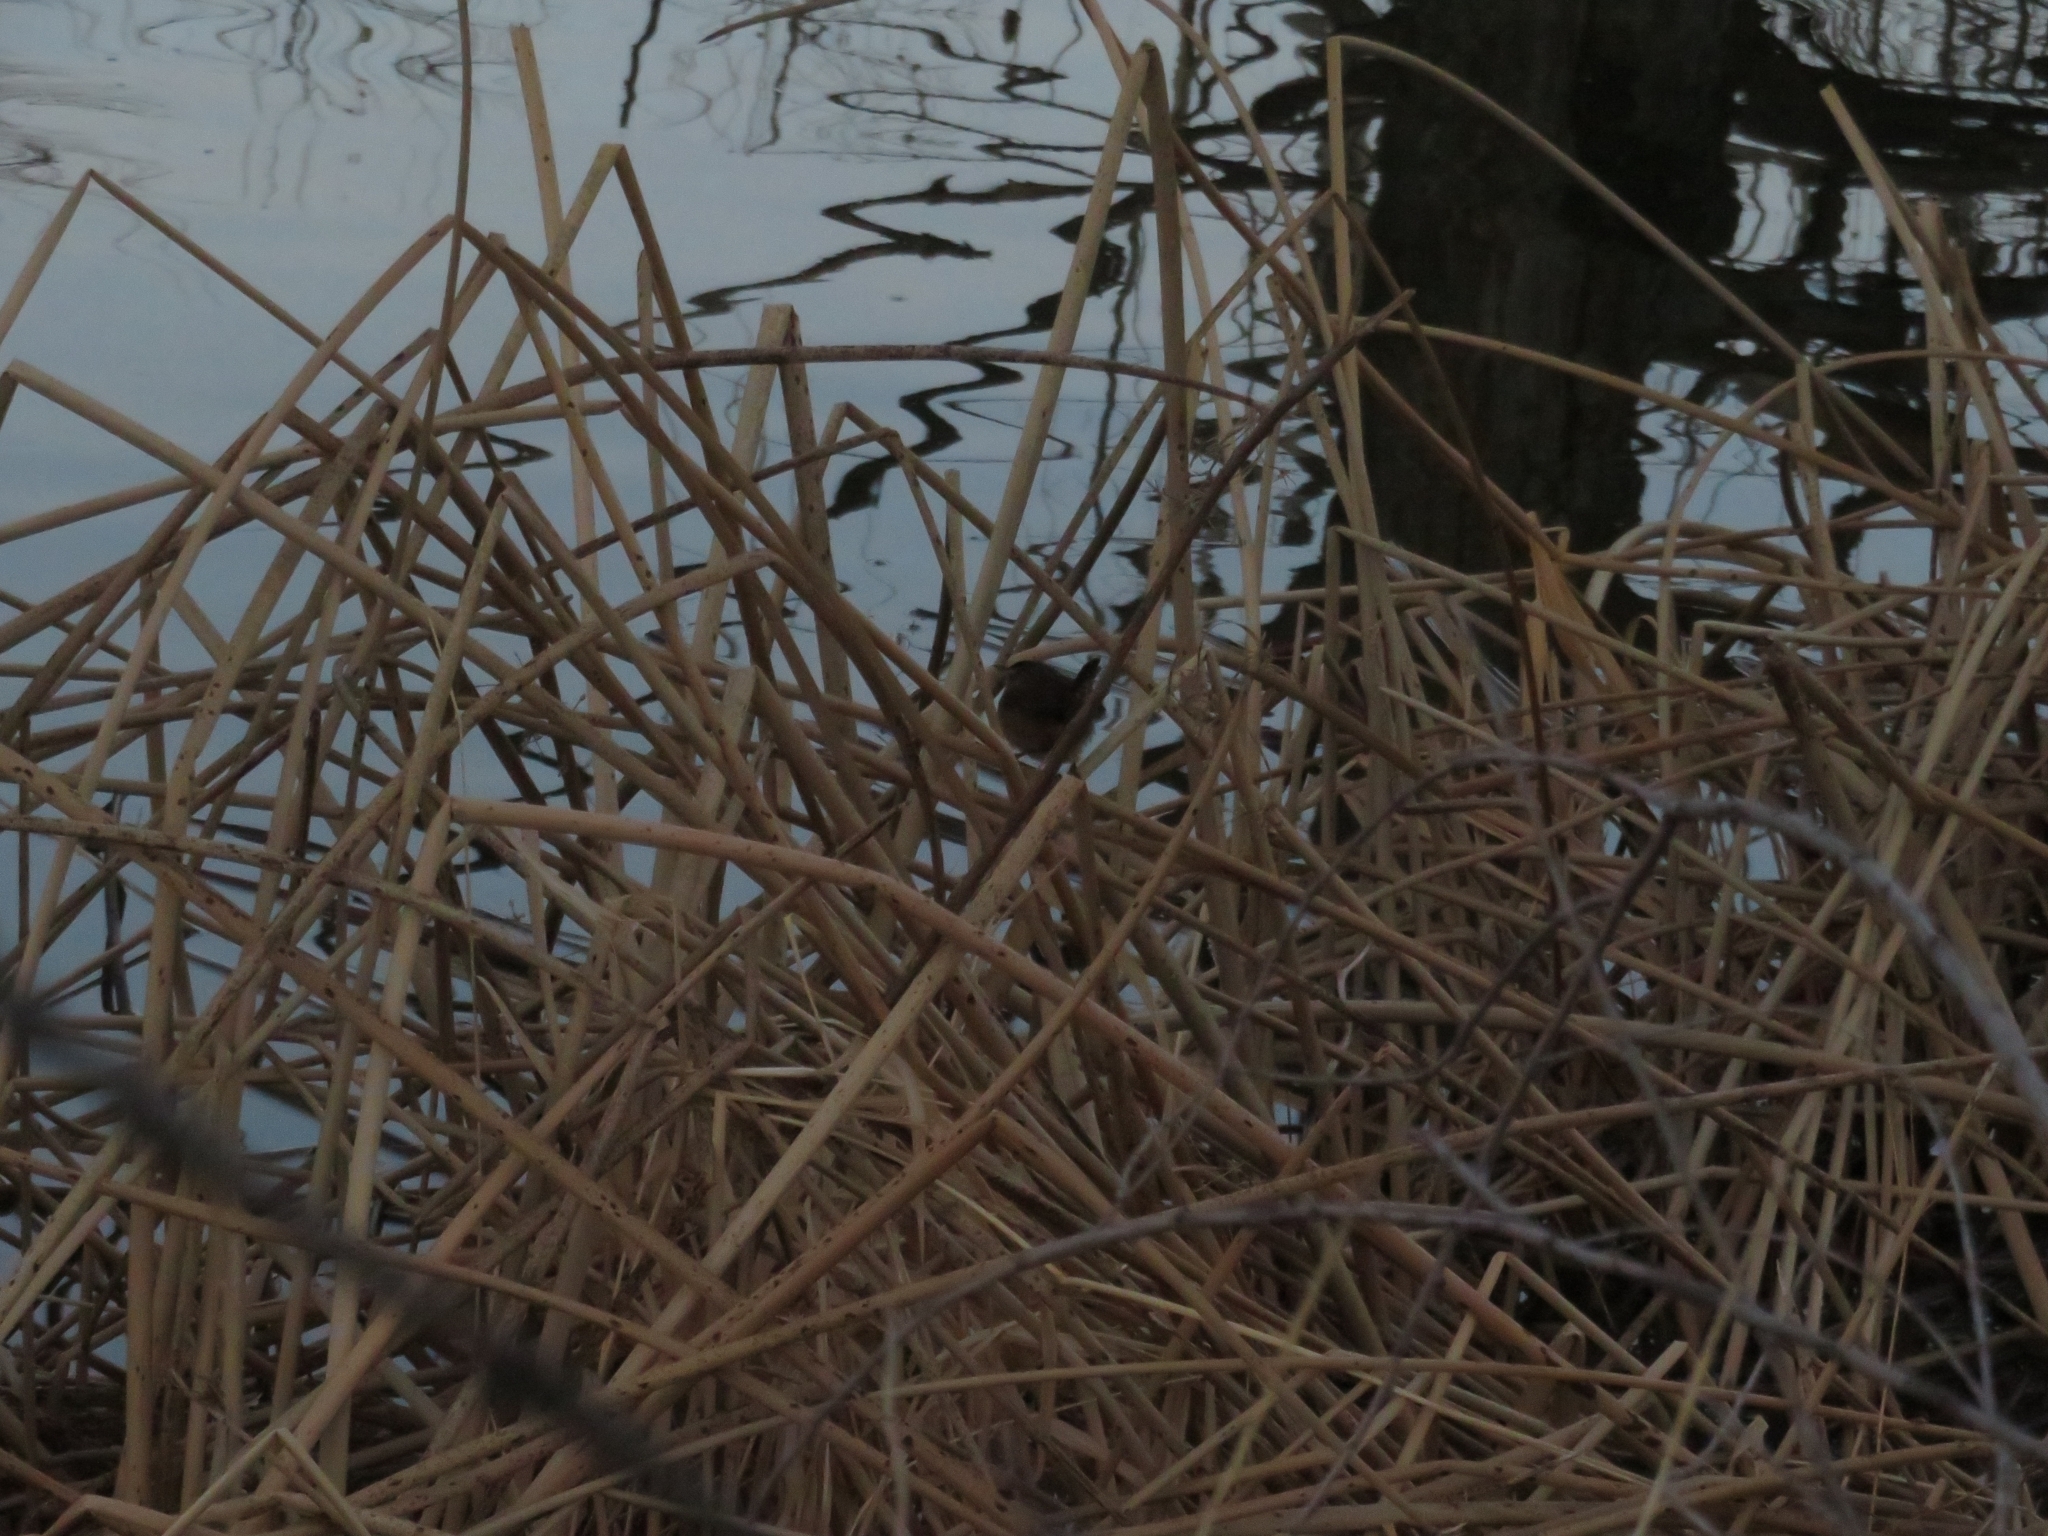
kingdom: Animalia
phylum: Chordata
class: Aves
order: Passeriformes
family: Troglodytidae
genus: Cistothorus
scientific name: Cistothorus palustris
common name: Marsh wren
